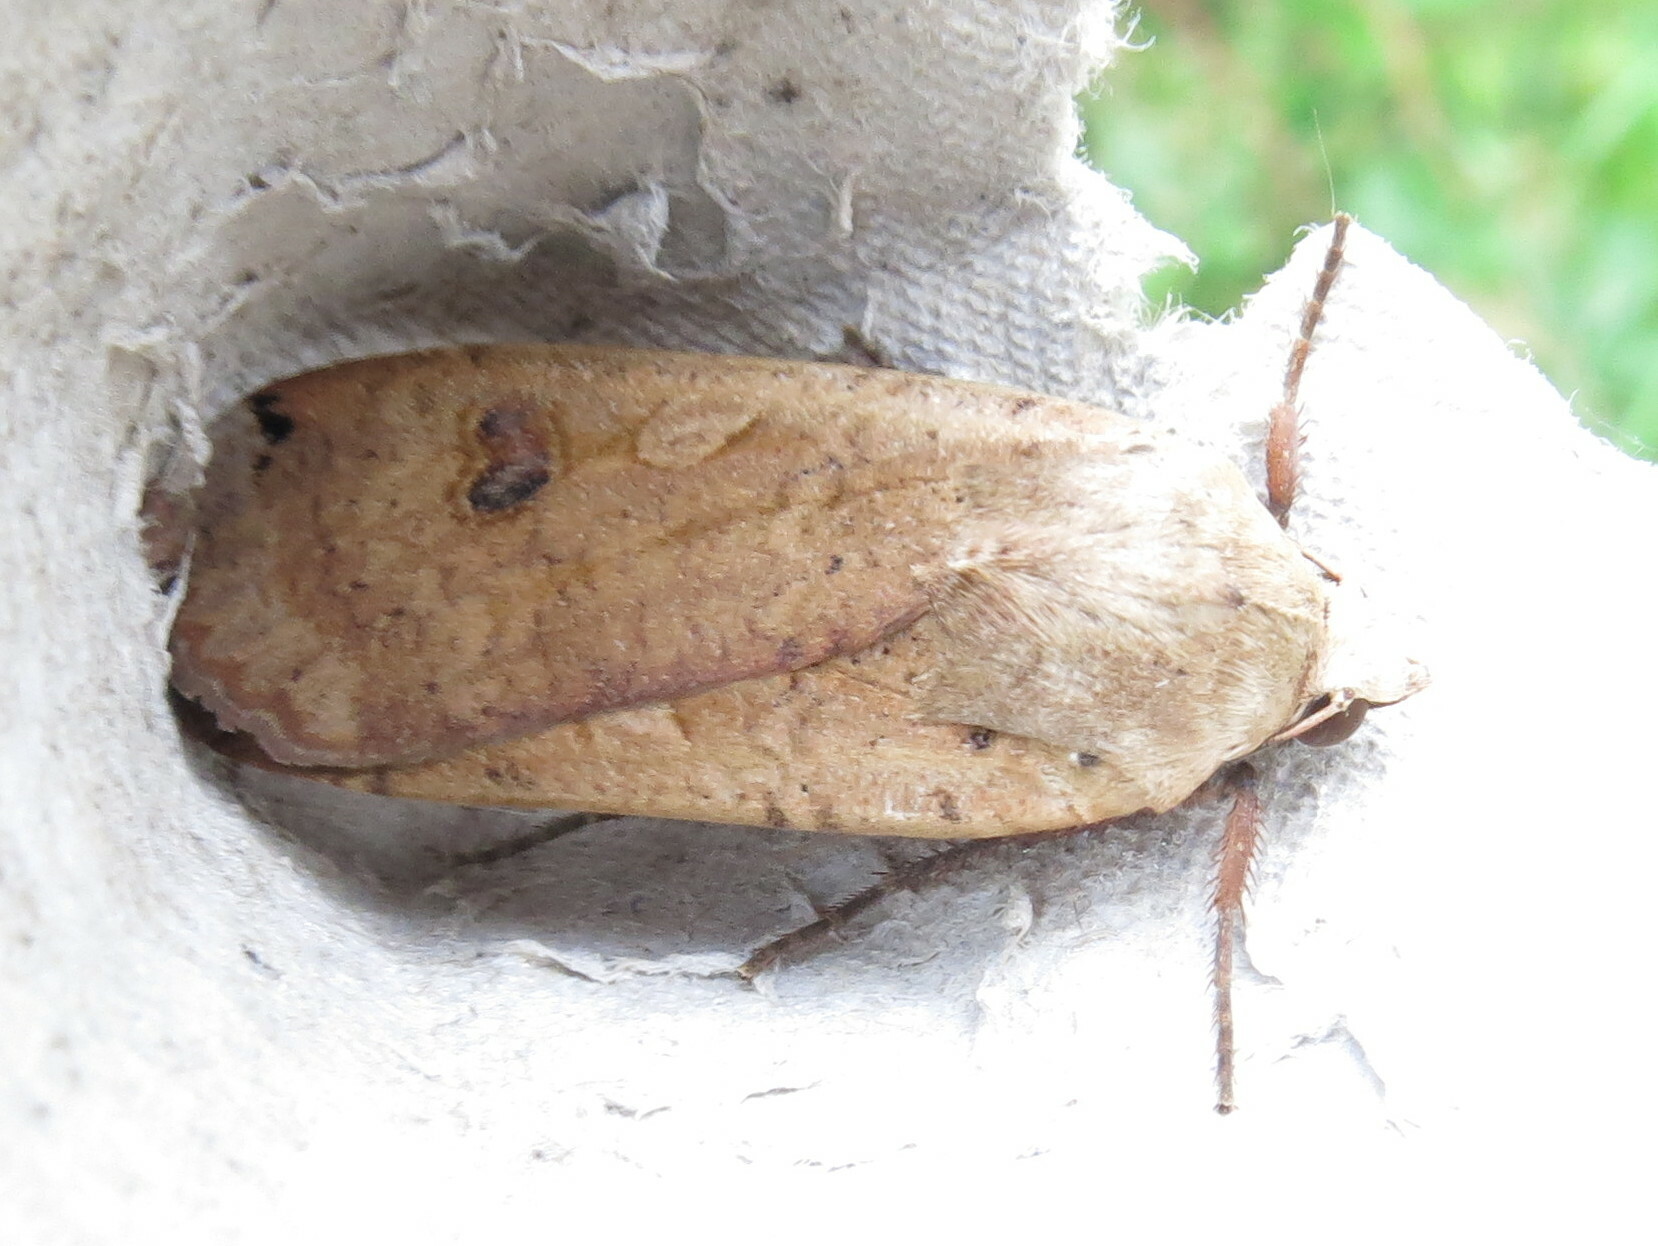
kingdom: Animalia
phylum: Arthropoda
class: Insecta
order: Lepidoptera
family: Noctuidae
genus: Noctua
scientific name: Noctua pronuba
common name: Large yellow underwing
